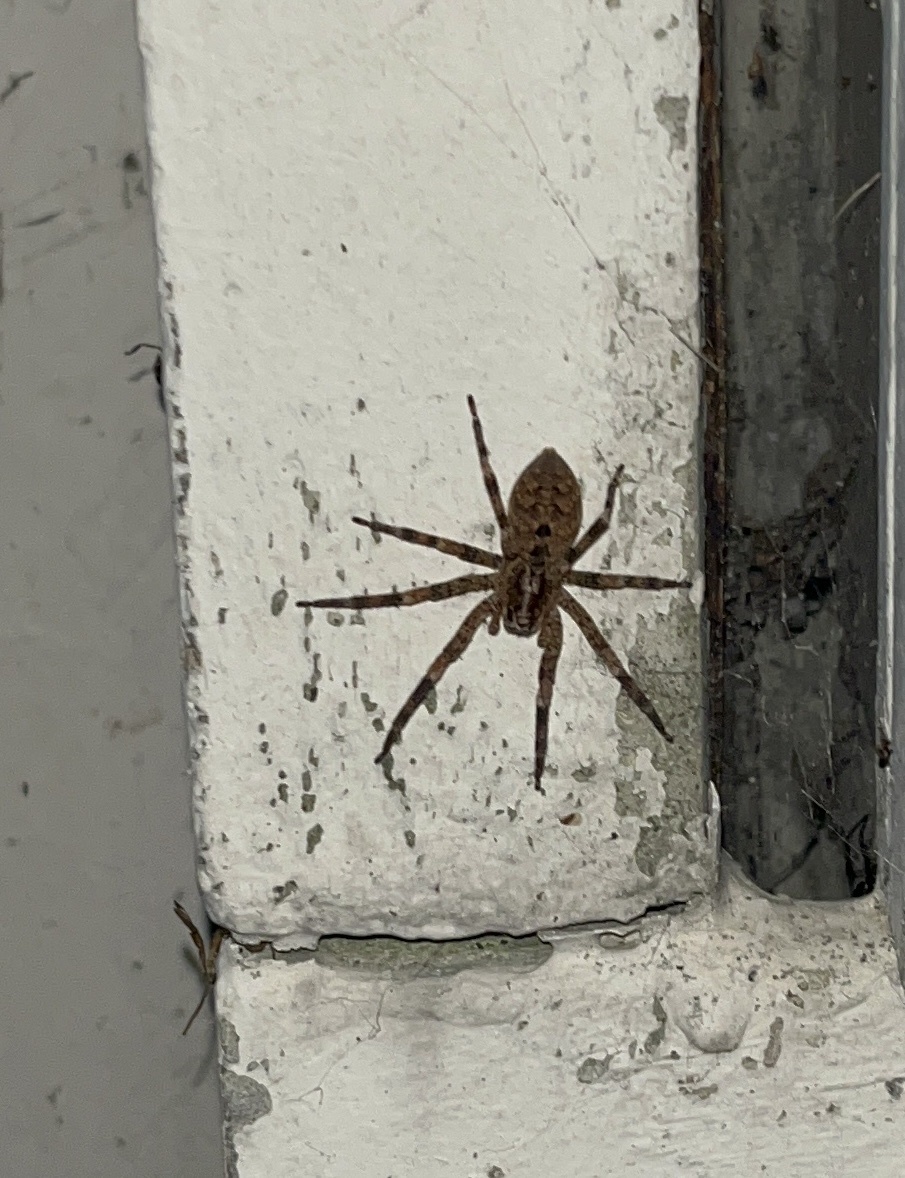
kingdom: Animalia
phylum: Arthropoda
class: Arachnida
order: Araneae
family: Zoropsidae
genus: Zoropsis
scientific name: Zoropsis spinimana
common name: Zoropsid spider
